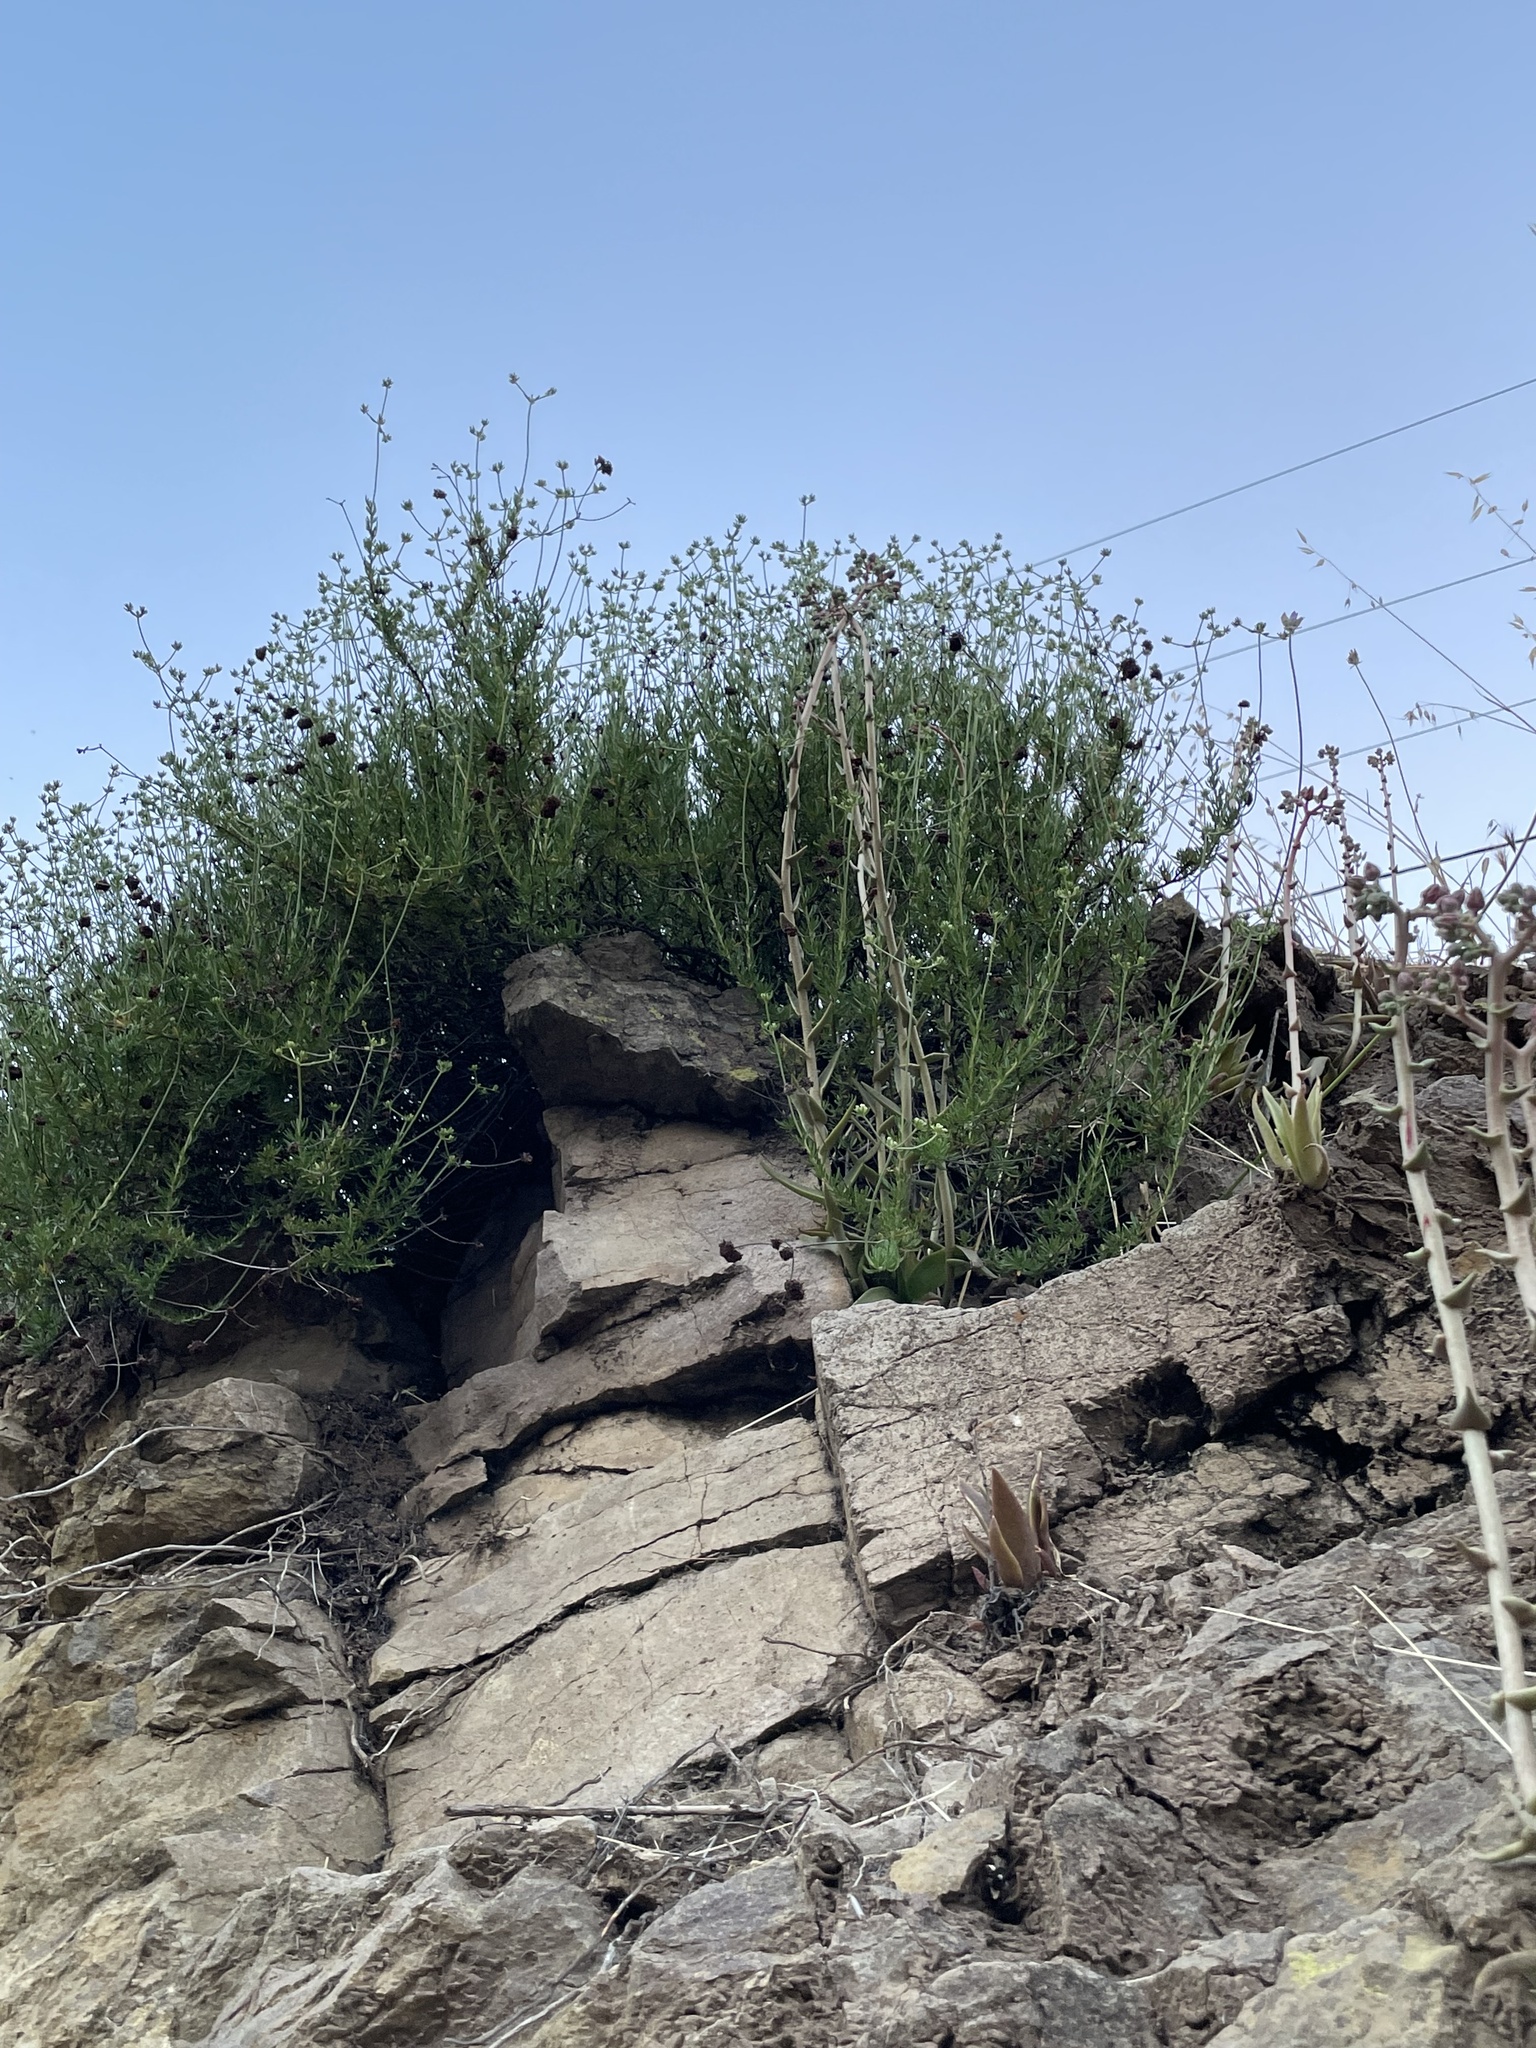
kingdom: Plantae
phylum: Tracheophyta
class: Magnoliopsida
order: Saxifragales
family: Crassulaceae
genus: Dudleya
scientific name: Dudleya lanceolata
